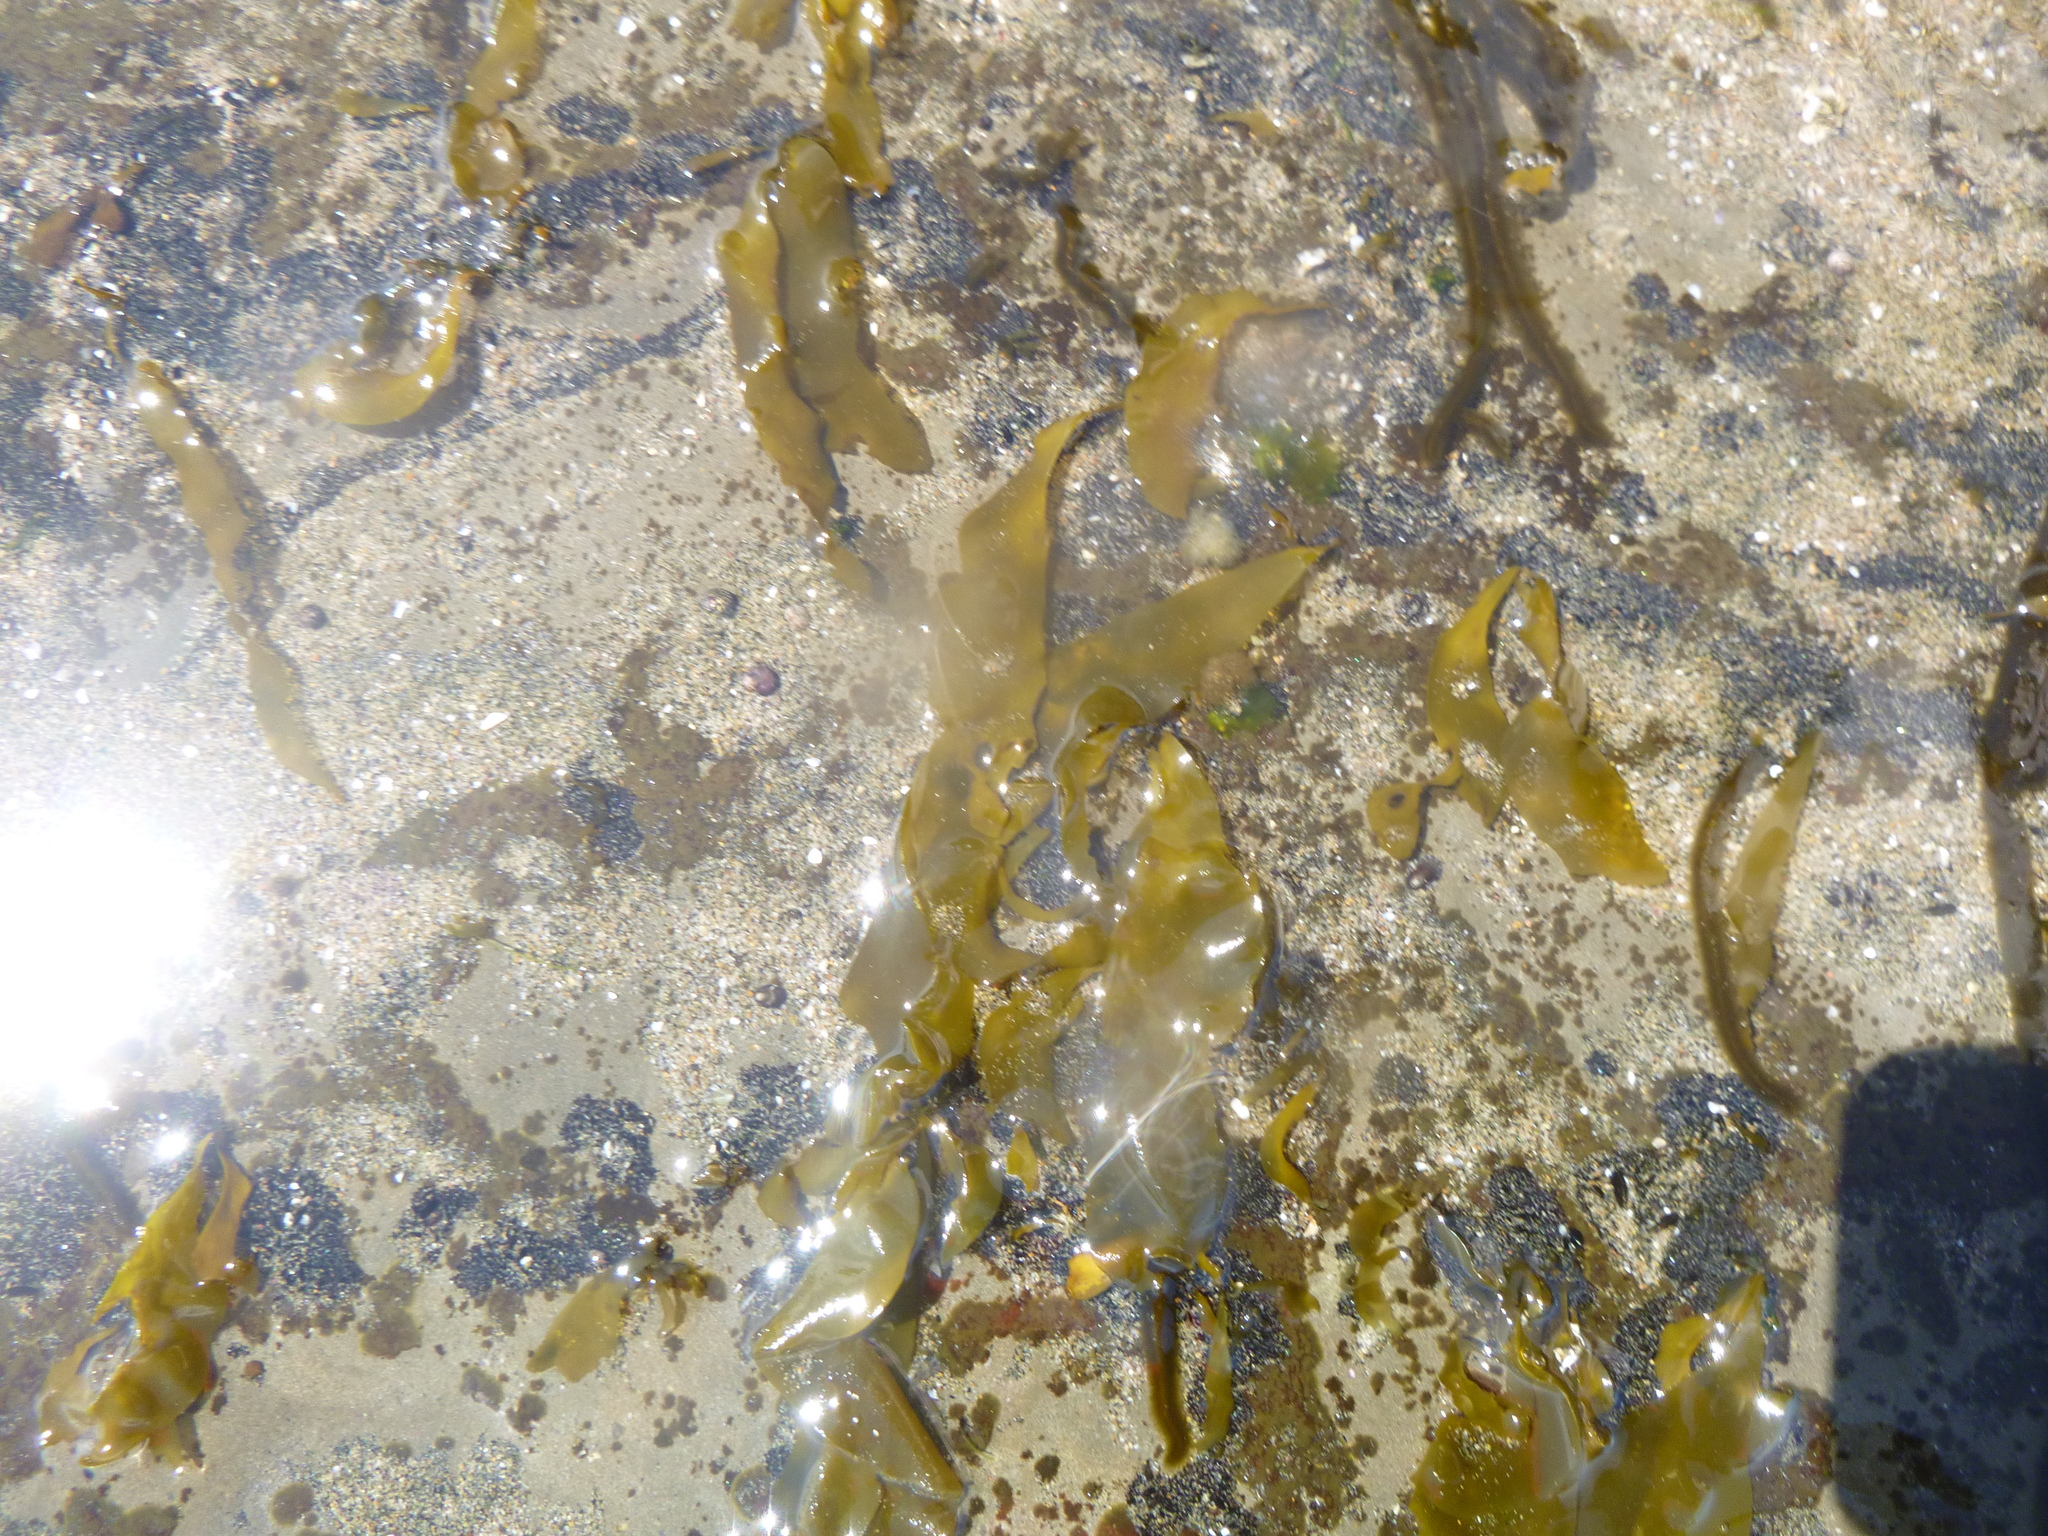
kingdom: Chromista
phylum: Ochrophyta
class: Phaeophyceae
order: Scytosiphonales
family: Scytosiphonaceae
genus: Petalonia
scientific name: Petalonia binghamiae
